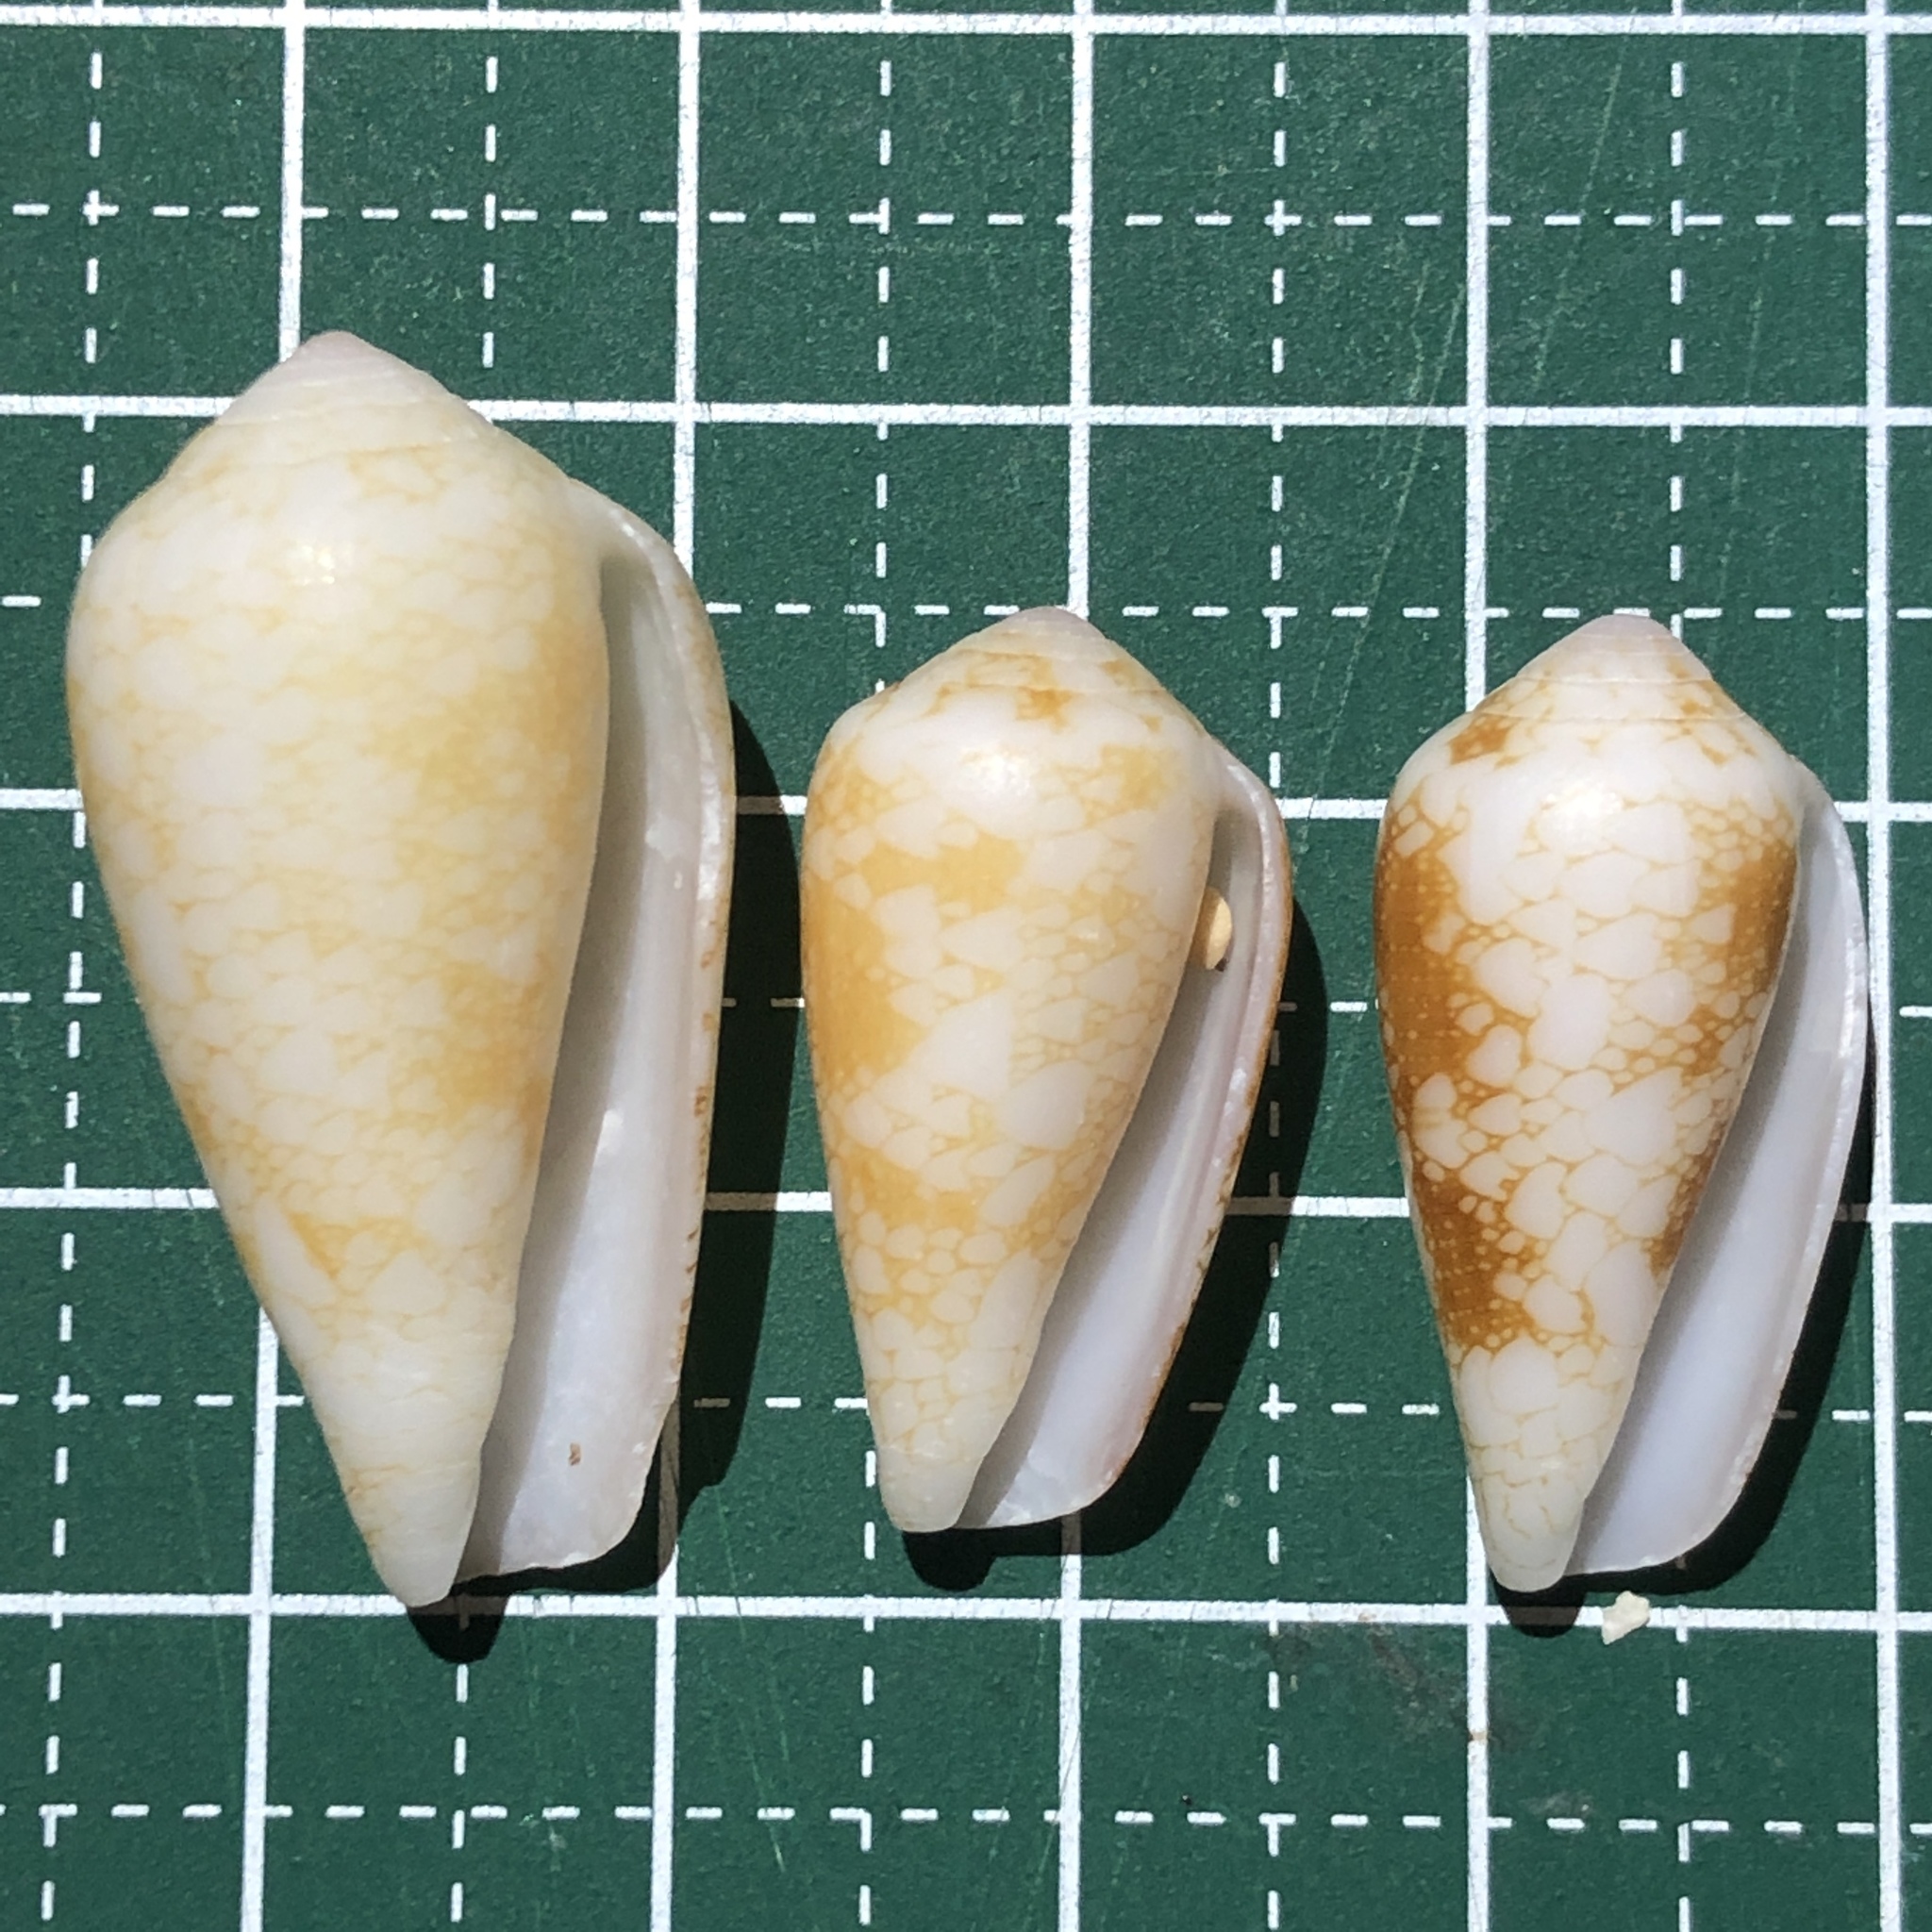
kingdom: Animalia
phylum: Mollusca
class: Gastropoda
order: Neogastropoda
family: Conidae
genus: Conus
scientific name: Conus omaria
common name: Omaria cone
